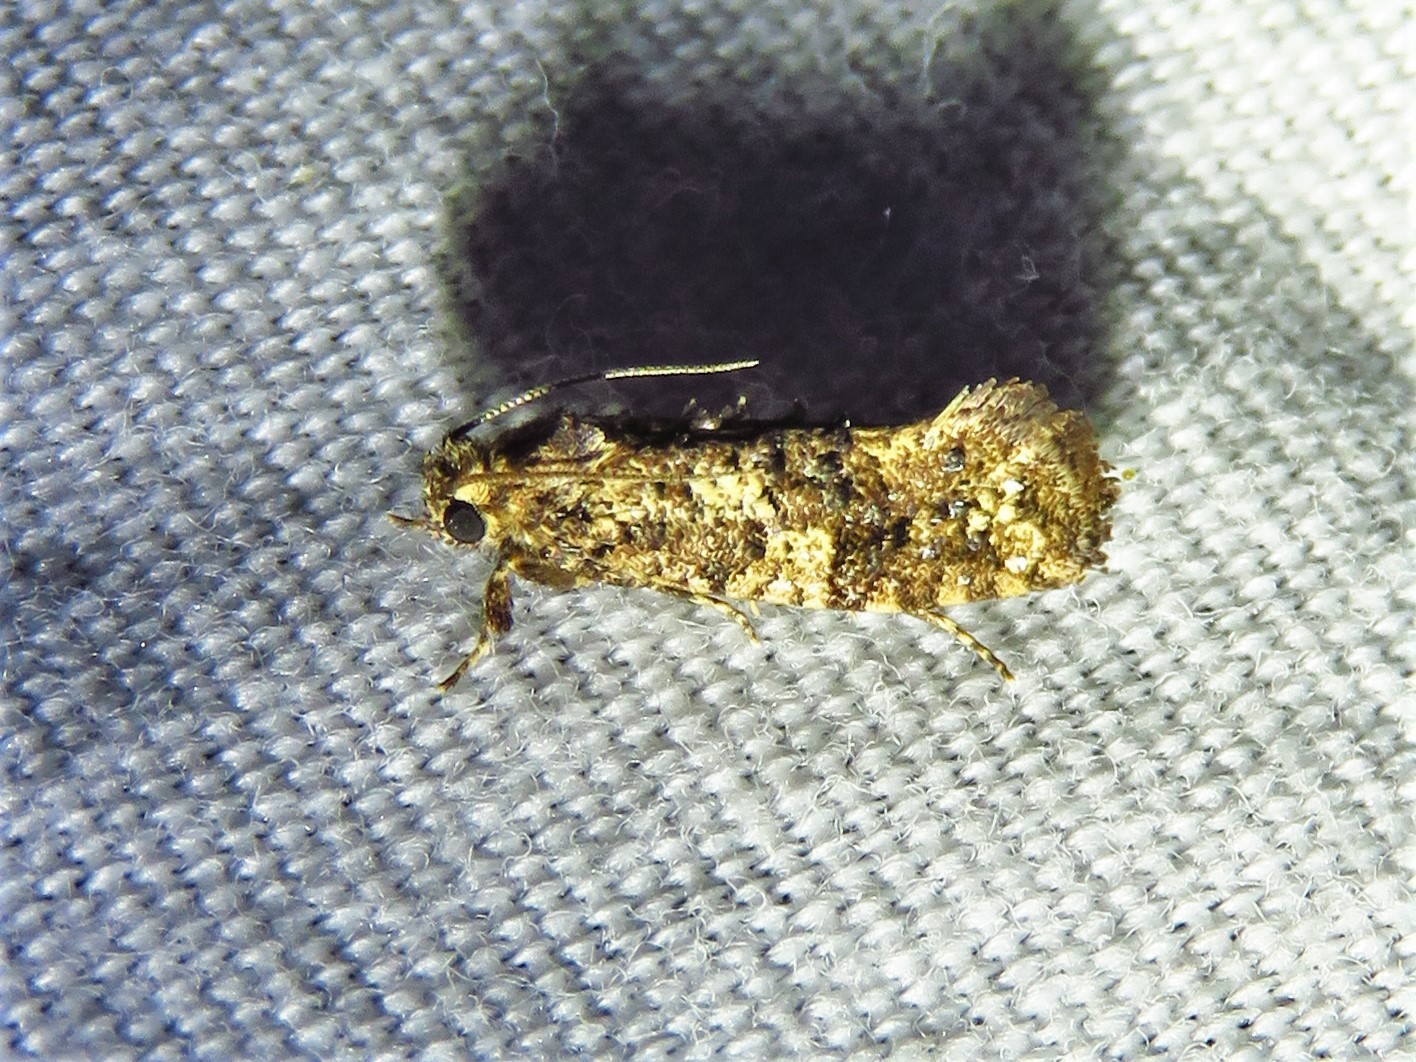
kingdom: Animalia
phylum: Arthropoda
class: Insecta
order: Lepidoptera
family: Tineidae
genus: Acrolophus
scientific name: Acrolophus cressoni
